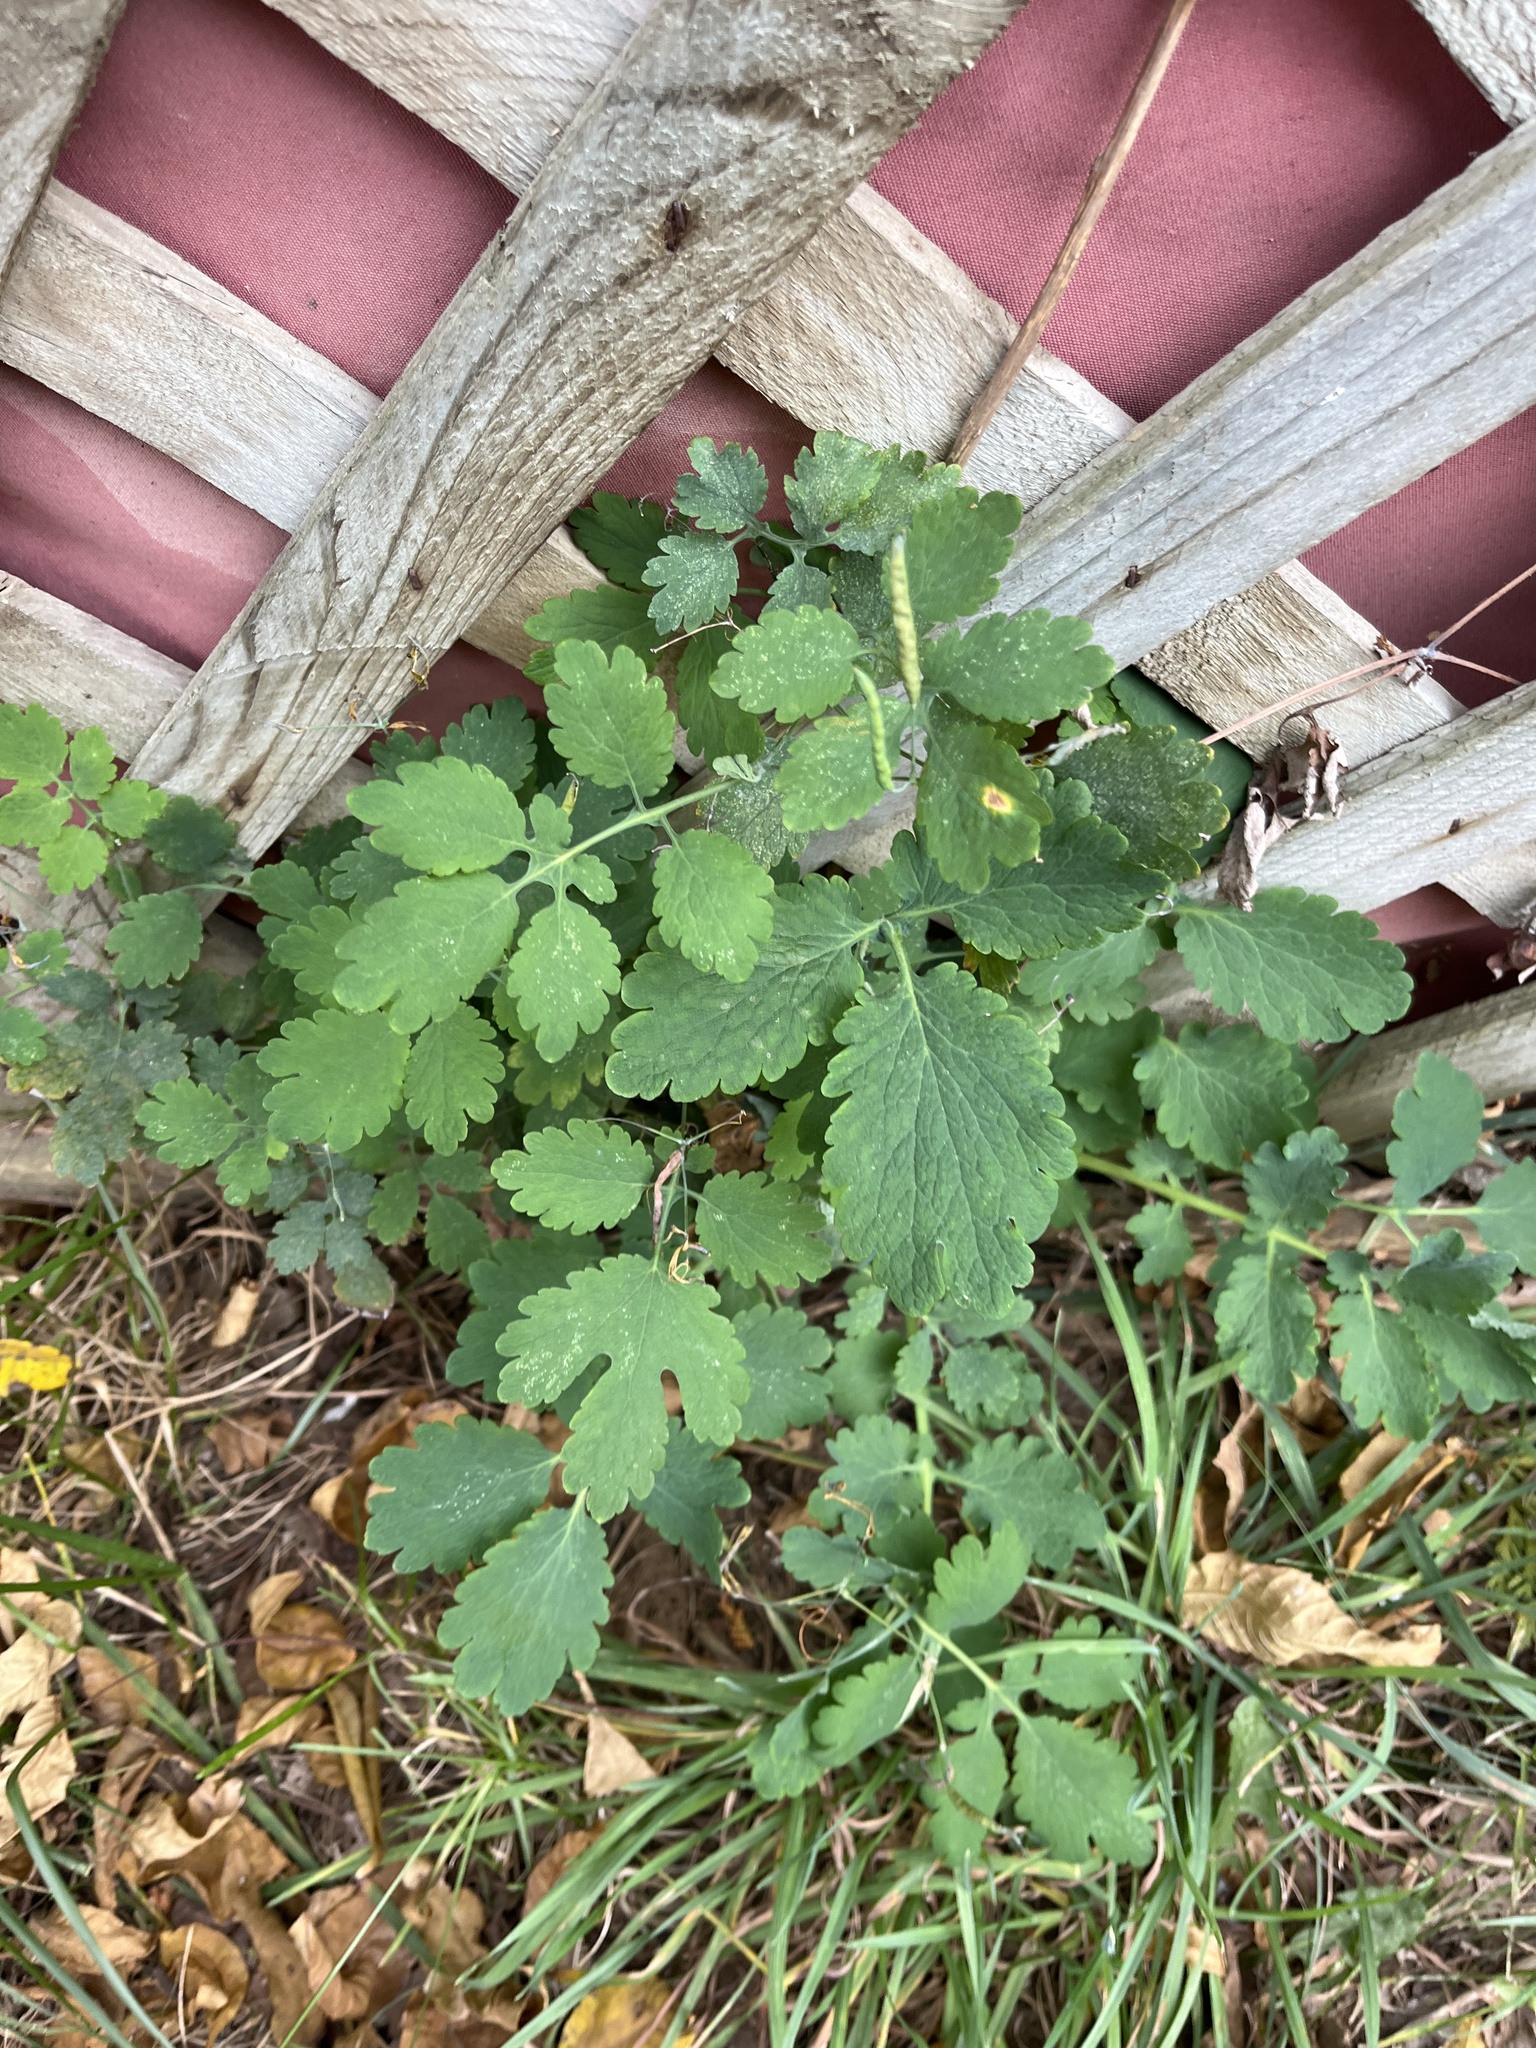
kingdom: Plantae
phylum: Tracheophyta
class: Magnoliopsida
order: Ranunculales
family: Papaveraceae
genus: Chelidonium
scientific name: Chelidonium majus
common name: Greater celandine
